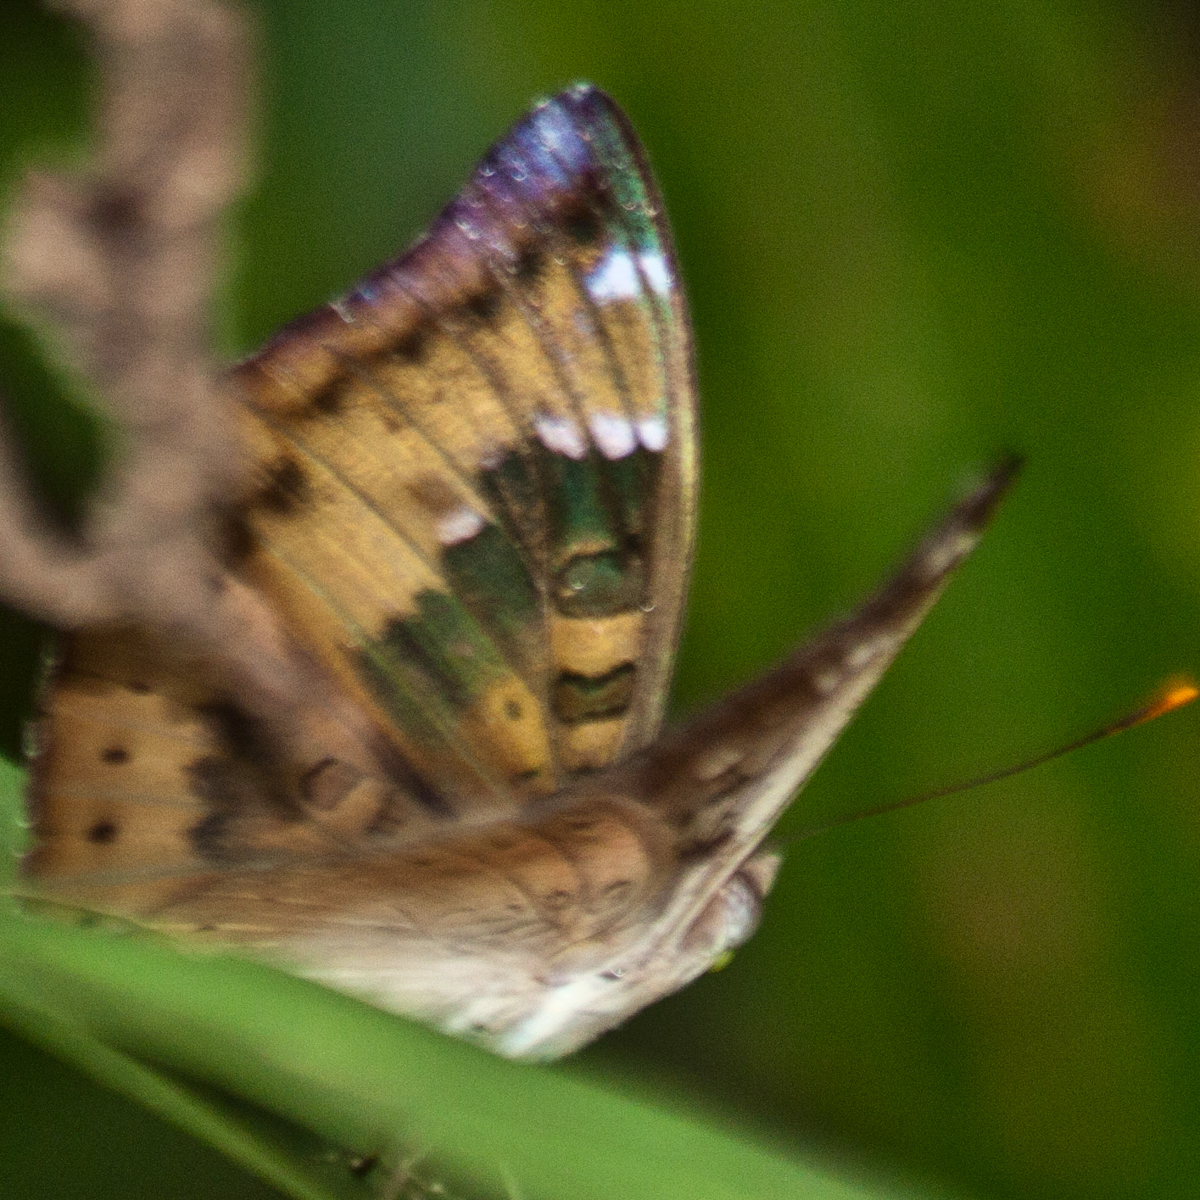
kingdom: Animalia
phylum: Arthropoda
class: Insecta
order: Lepidoptera
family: Nymphalidae
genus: Euthalia
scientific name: Euthalia aconthea
